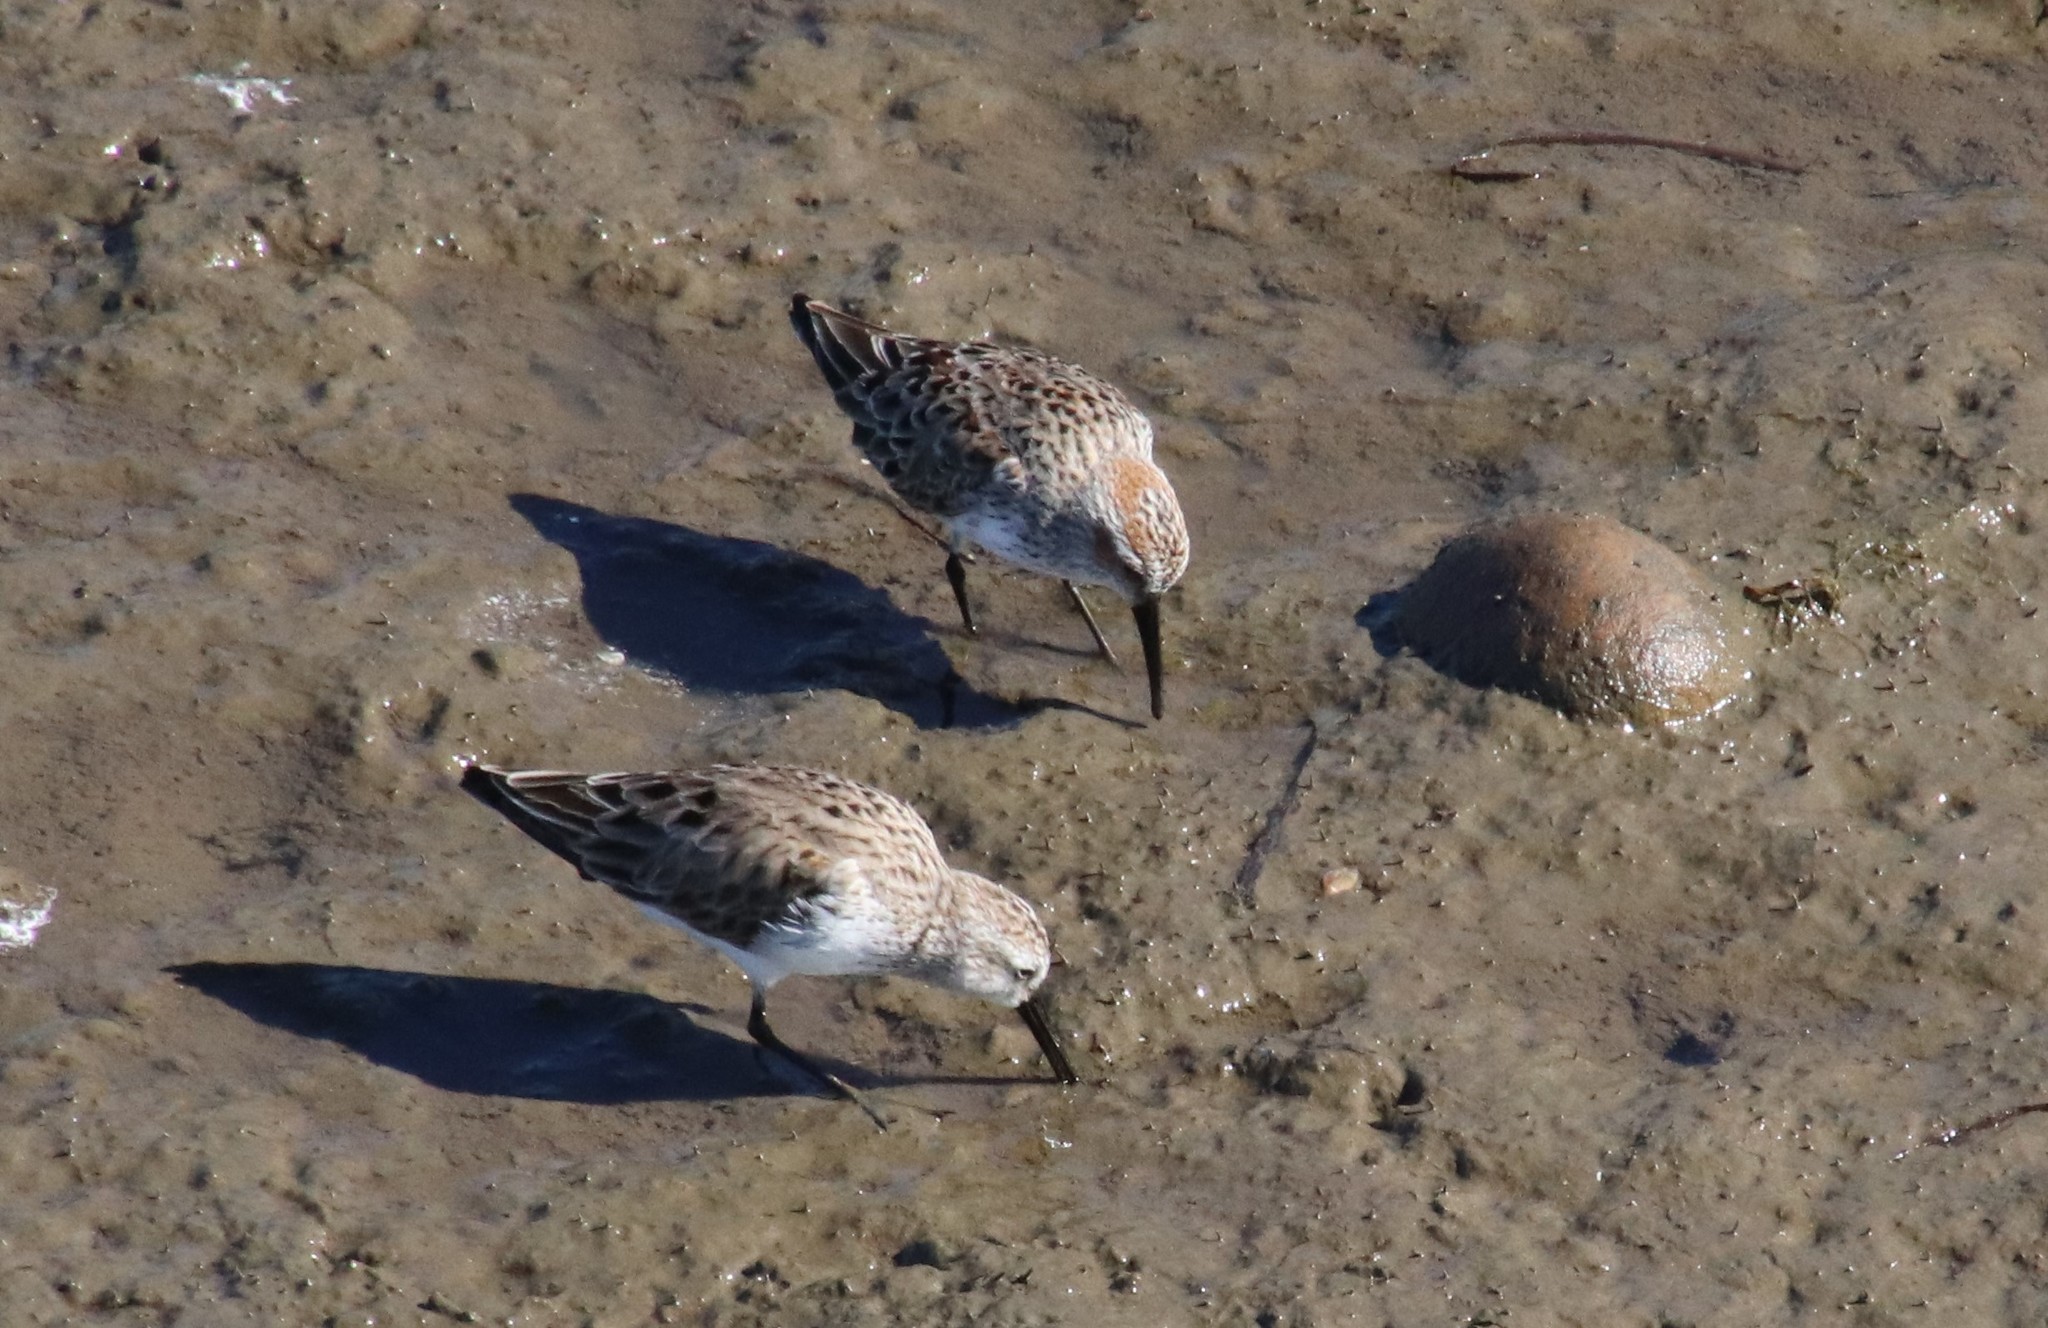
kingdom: Animalia
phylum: Chordata
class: Aves
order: Charadriiformes
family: Scolopacidae
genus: Calidris
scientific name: Calidris mauri
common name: Western sandpiper
